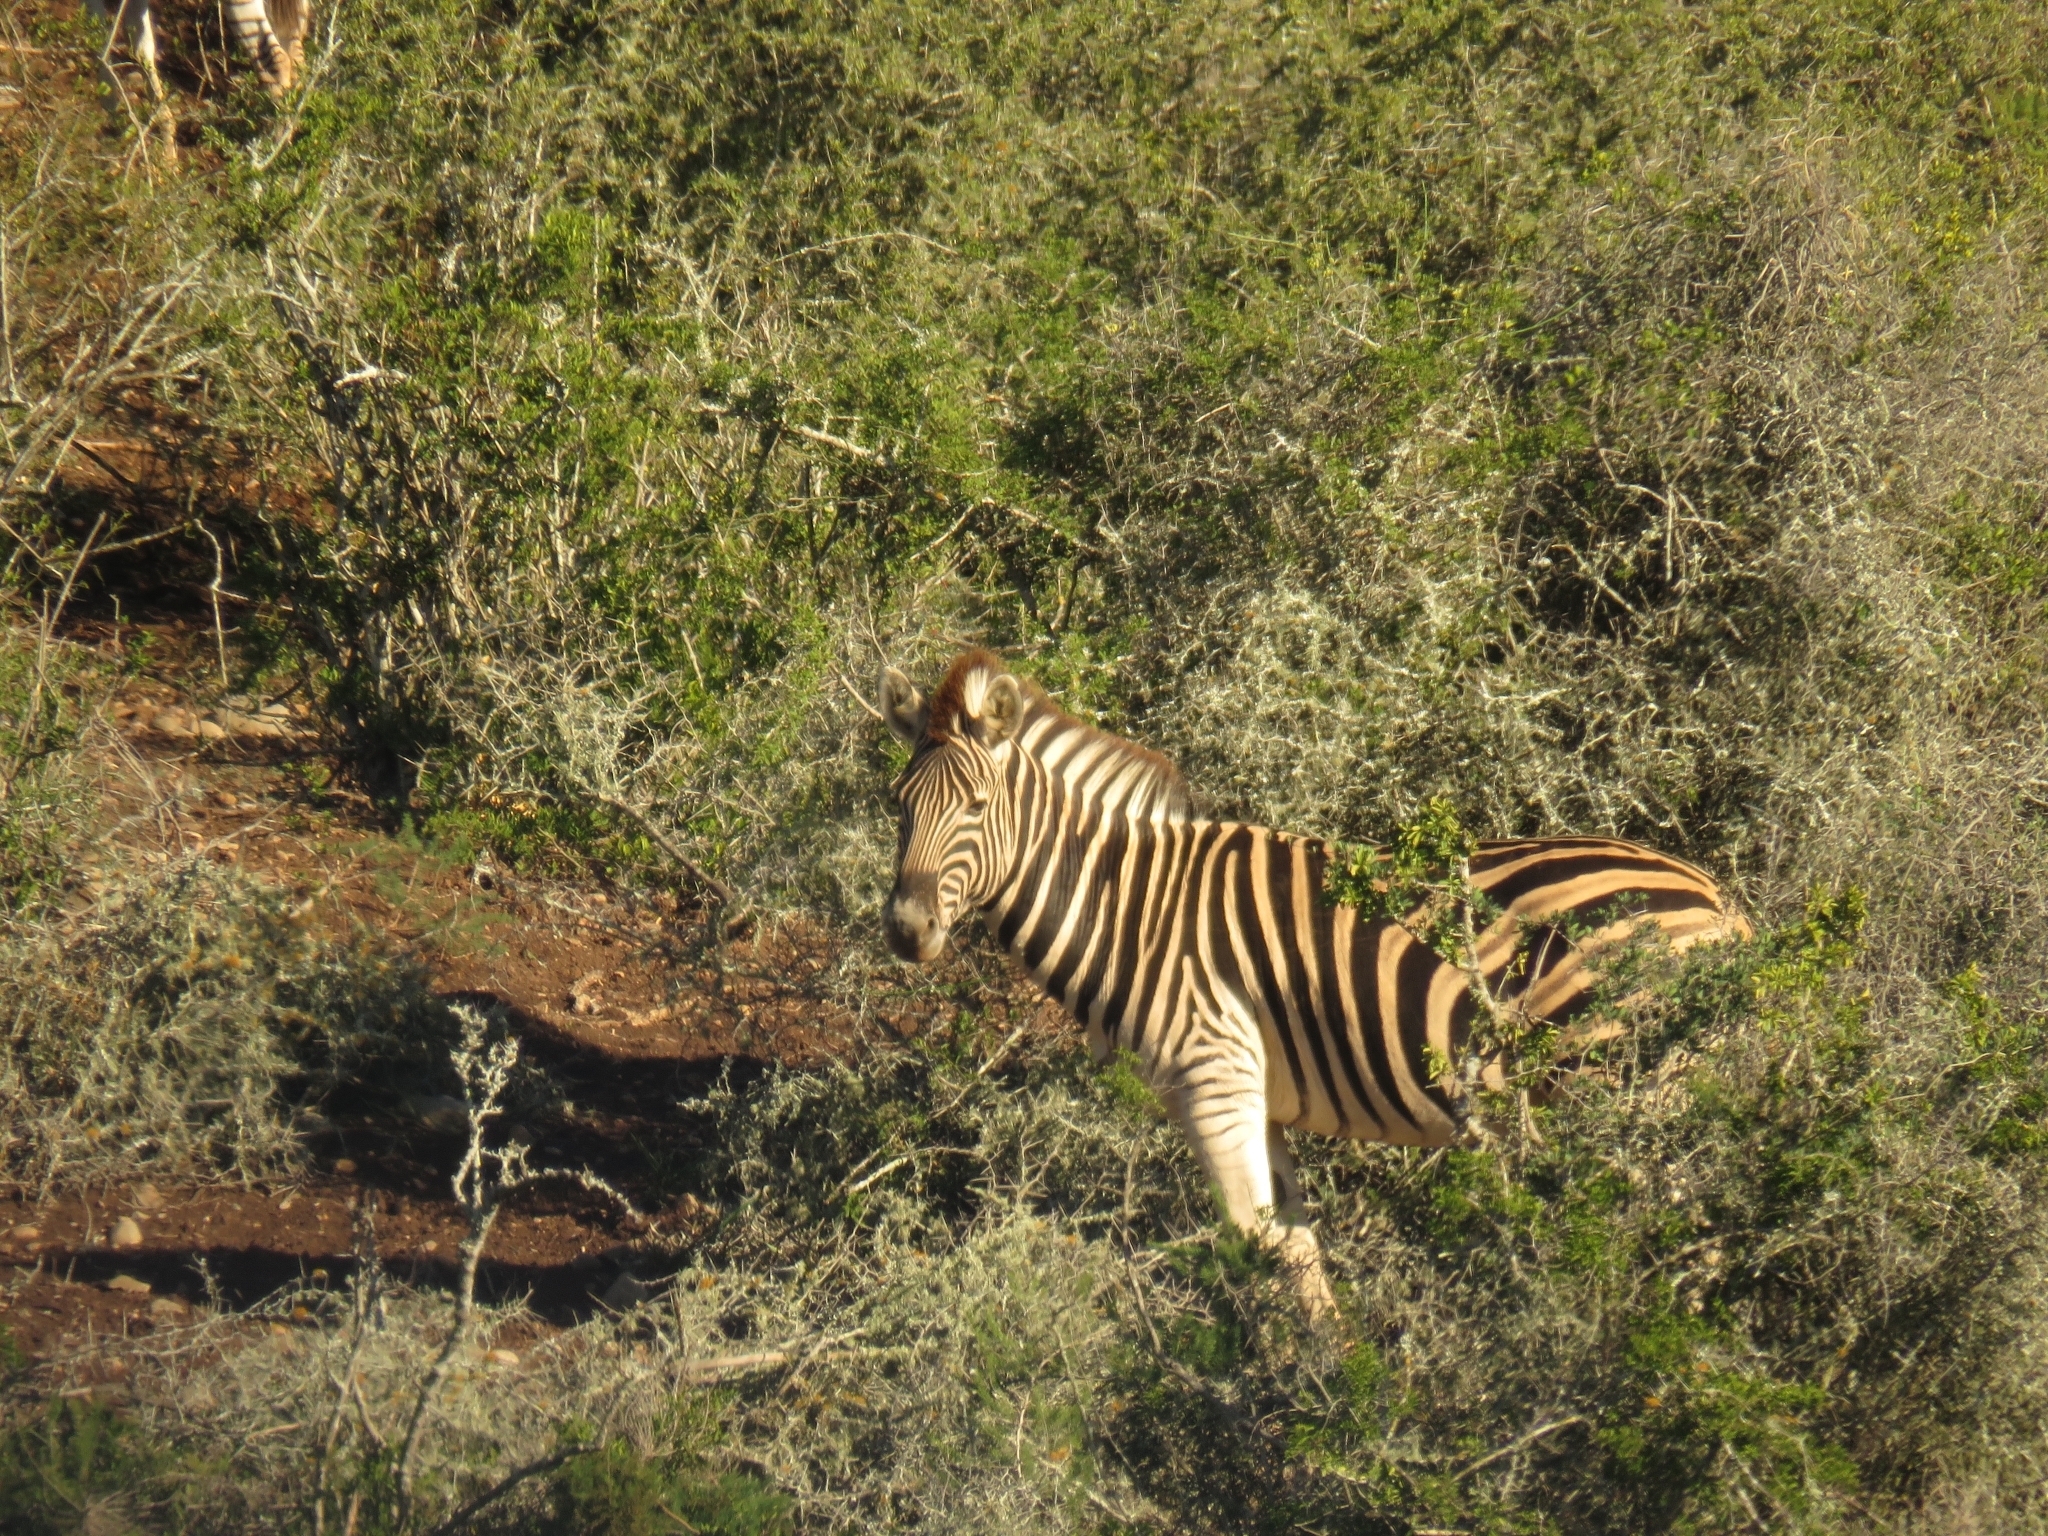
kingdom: Animalia
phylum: Chordata
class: Mammalia
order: Perissodactyla
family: Equidae
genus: Equus
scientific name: Equus quagga
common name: Plains zebra
